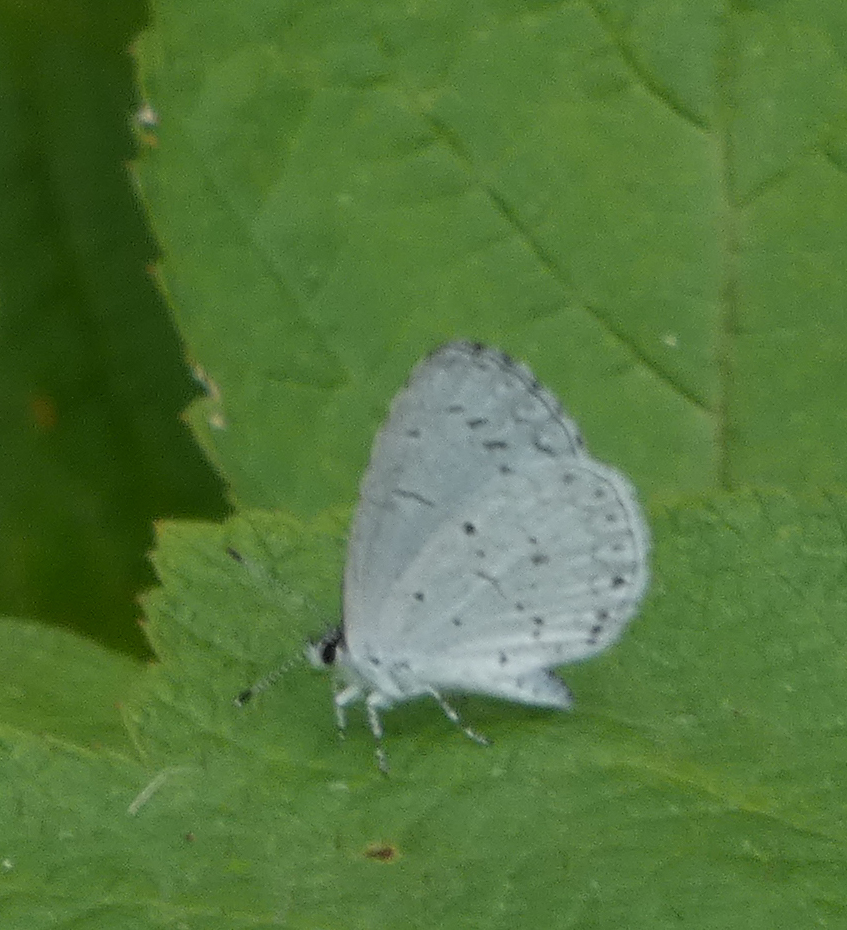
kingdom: Animalia
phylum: Arthropoda
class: Insecta
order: Lepidoptera
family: Lycaenidae
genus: Cyaniris
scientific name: Cyaniris neglecta
